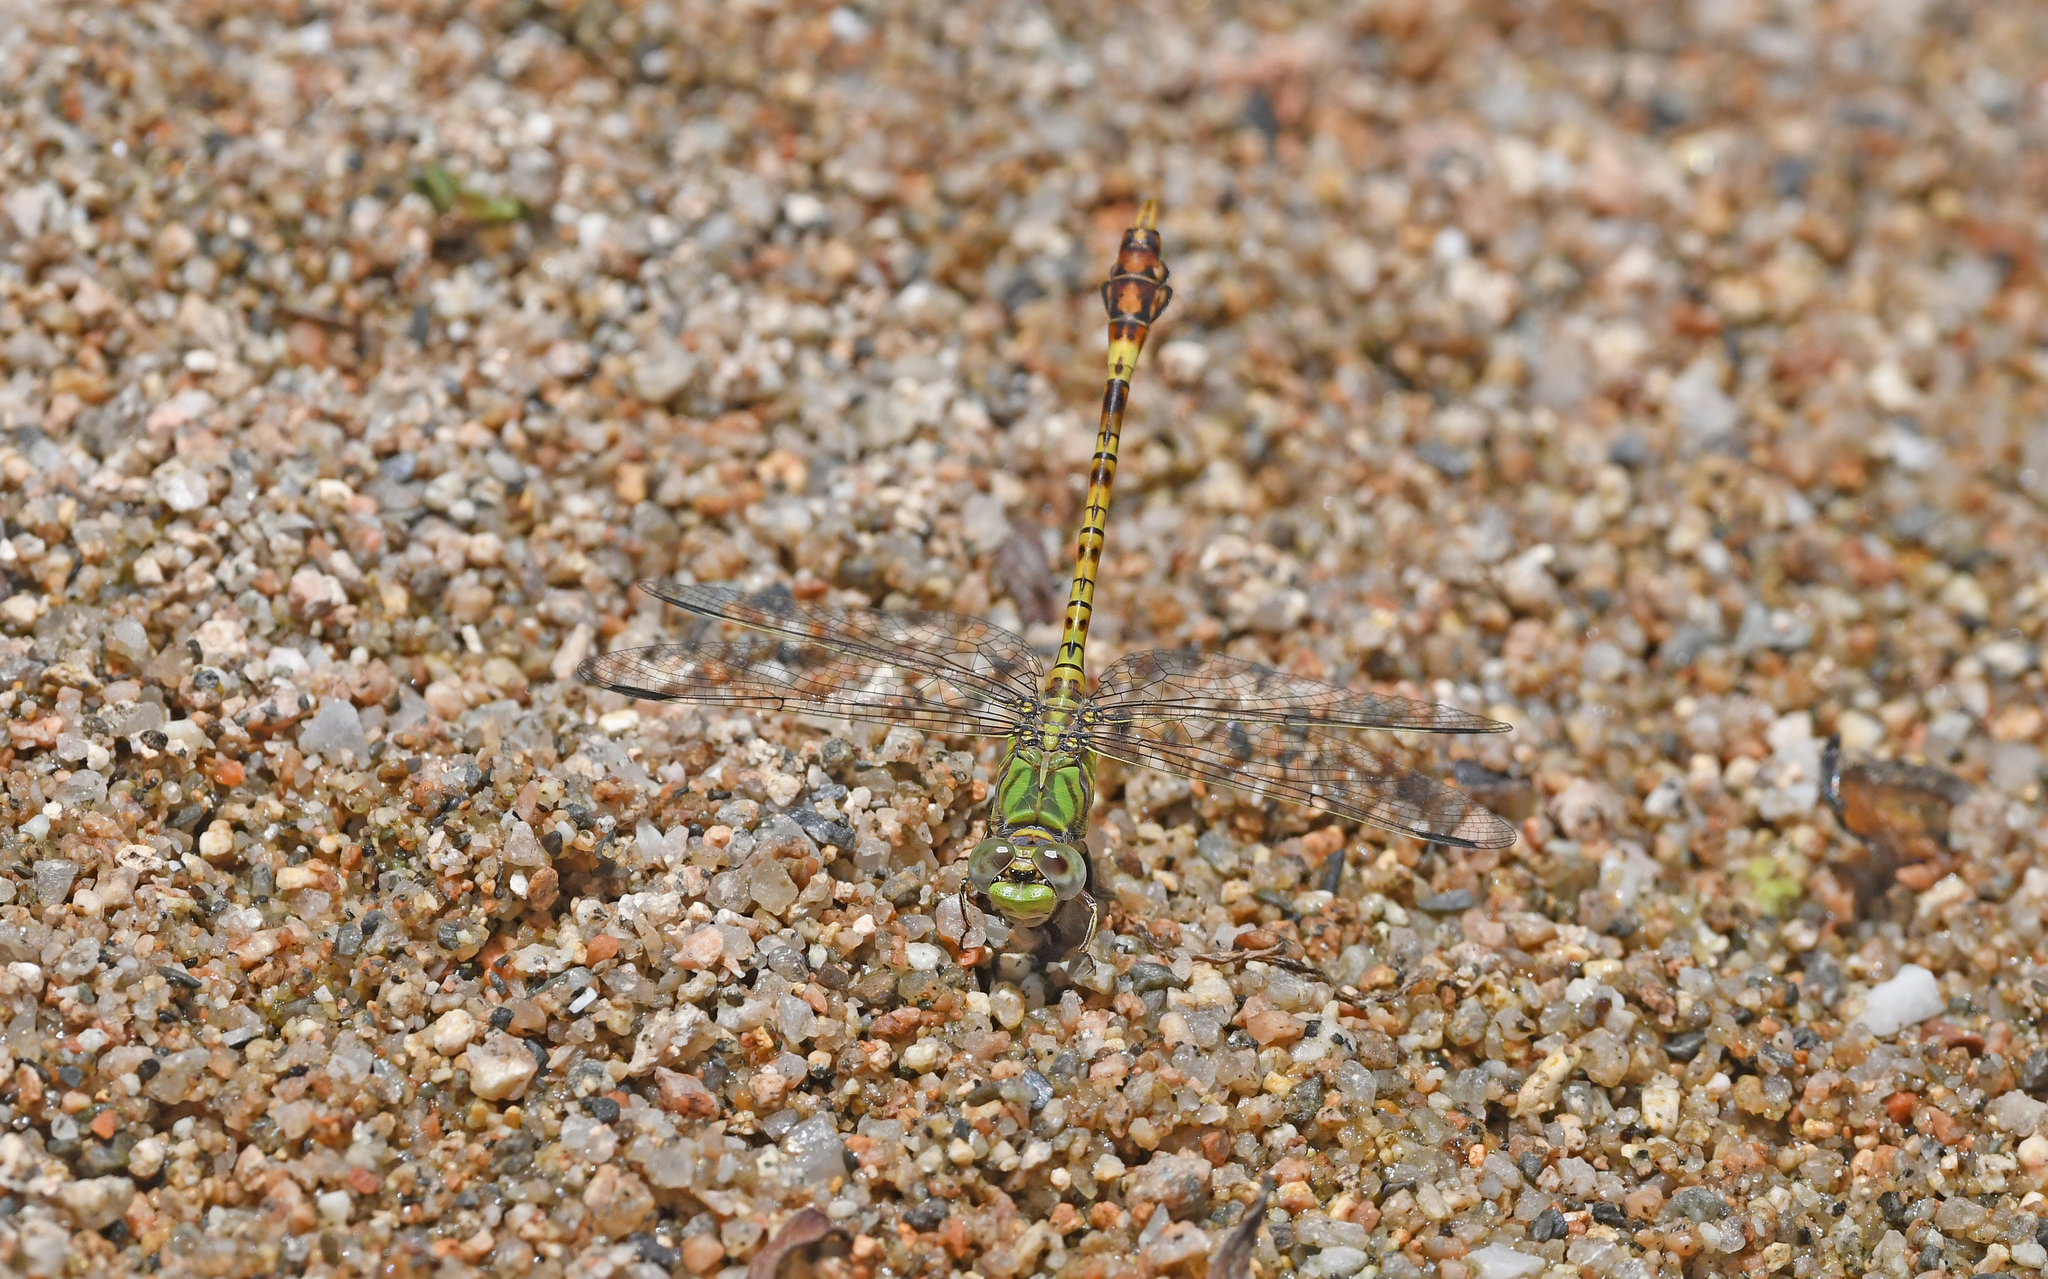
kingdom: Animalia
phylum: Arthropoda
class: Insecta
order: Odonata
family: Gomphidae
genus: Paragomphus
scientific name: Paragomphus genei
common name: Common hooktail
